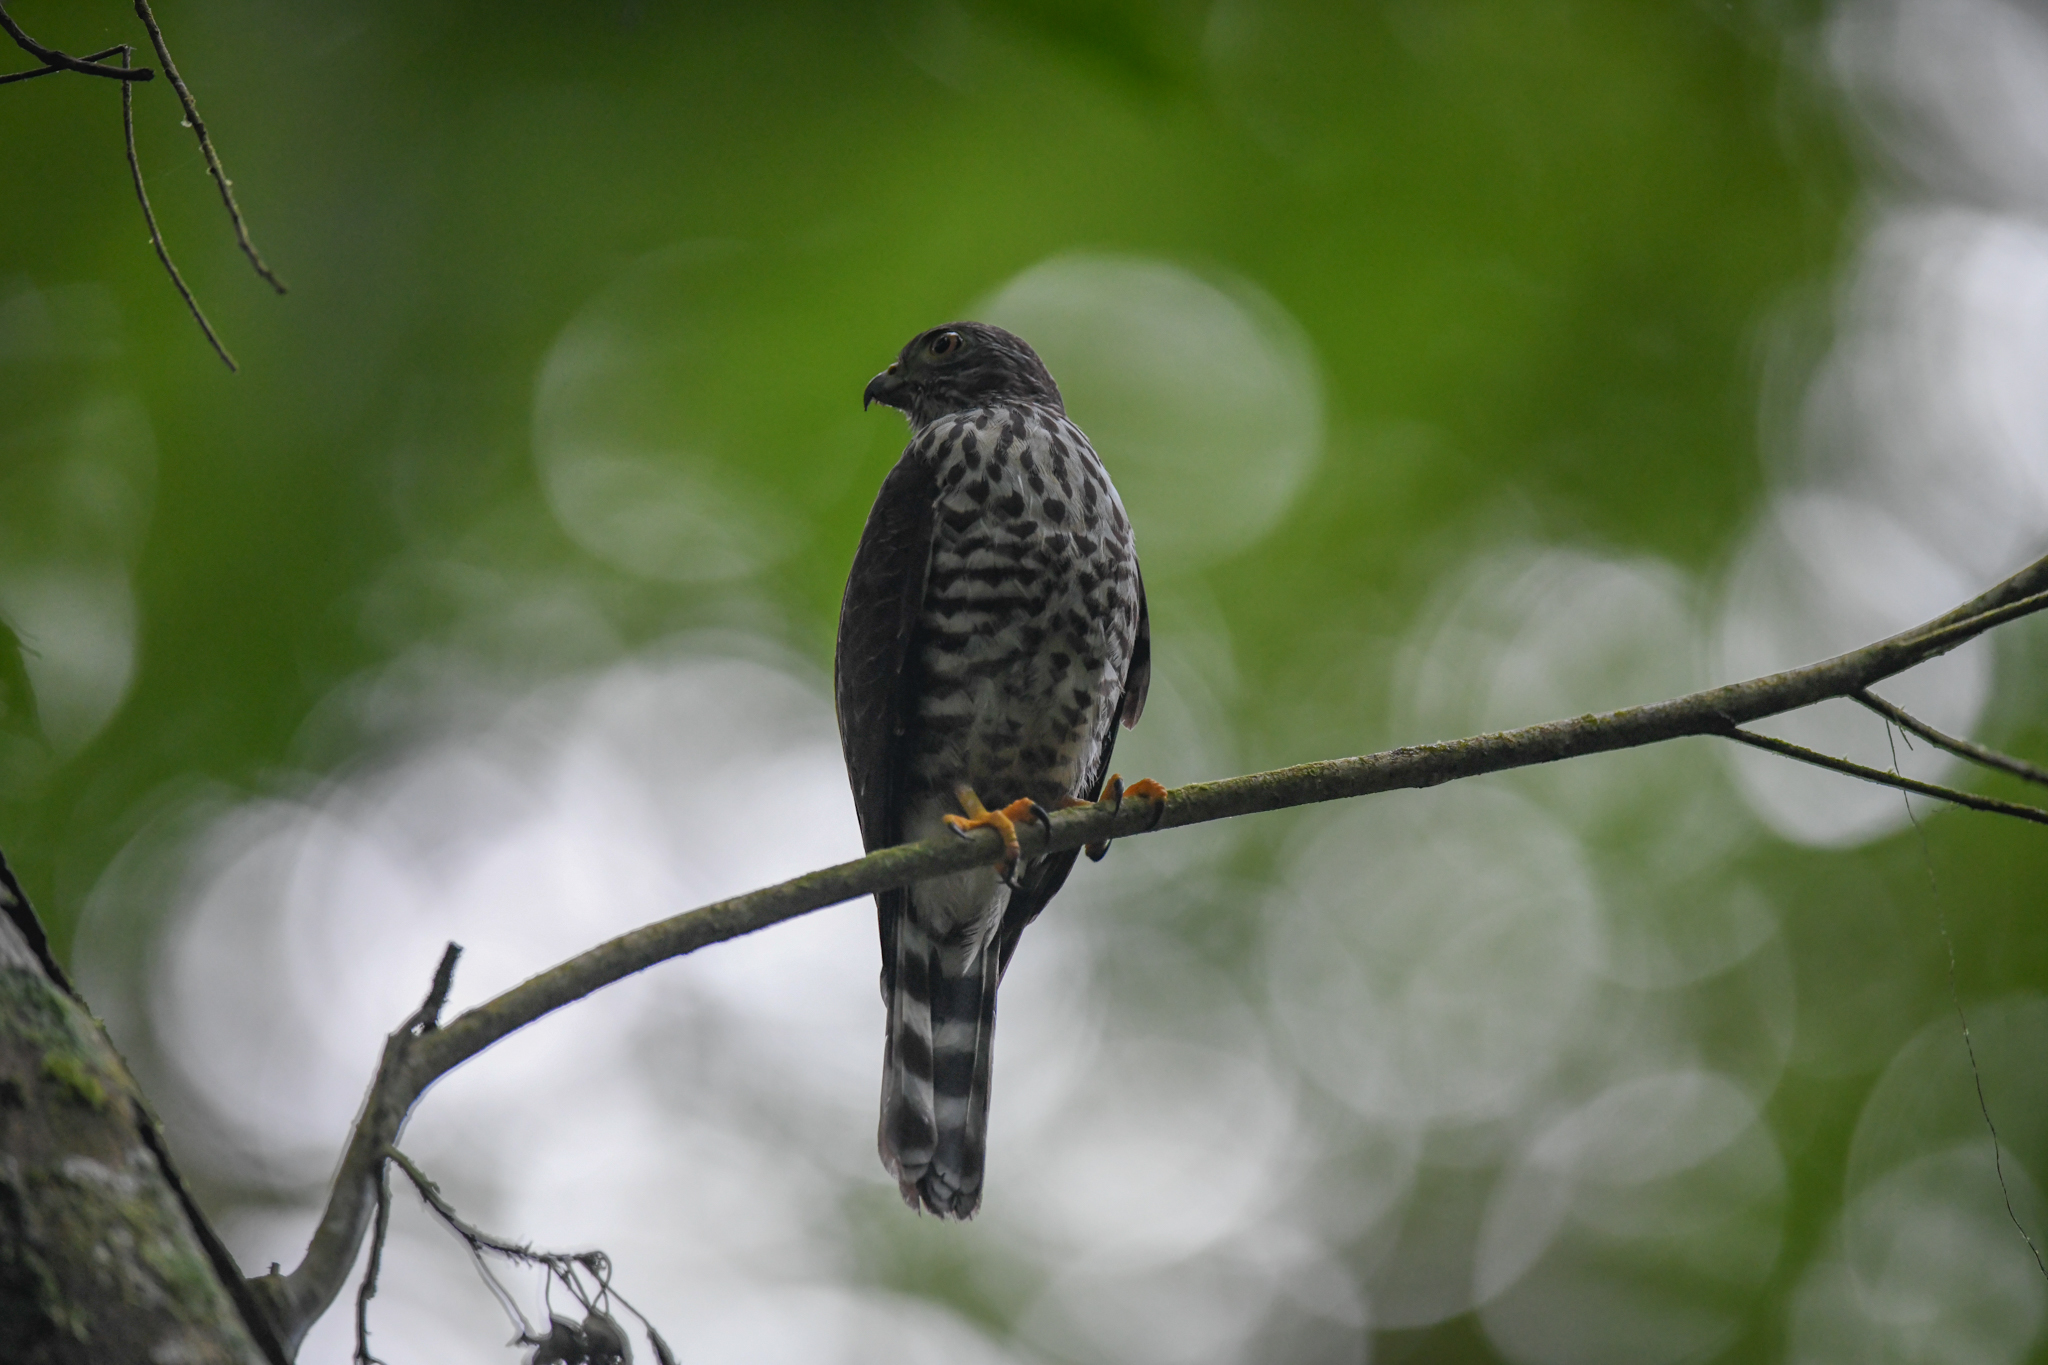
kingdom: Animalia
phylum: Chordata
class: Aves
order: Accipitriformes
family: Accipitridae
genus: Harpagus
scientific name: Harpagus bidentatus
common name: Double-toothed kite
